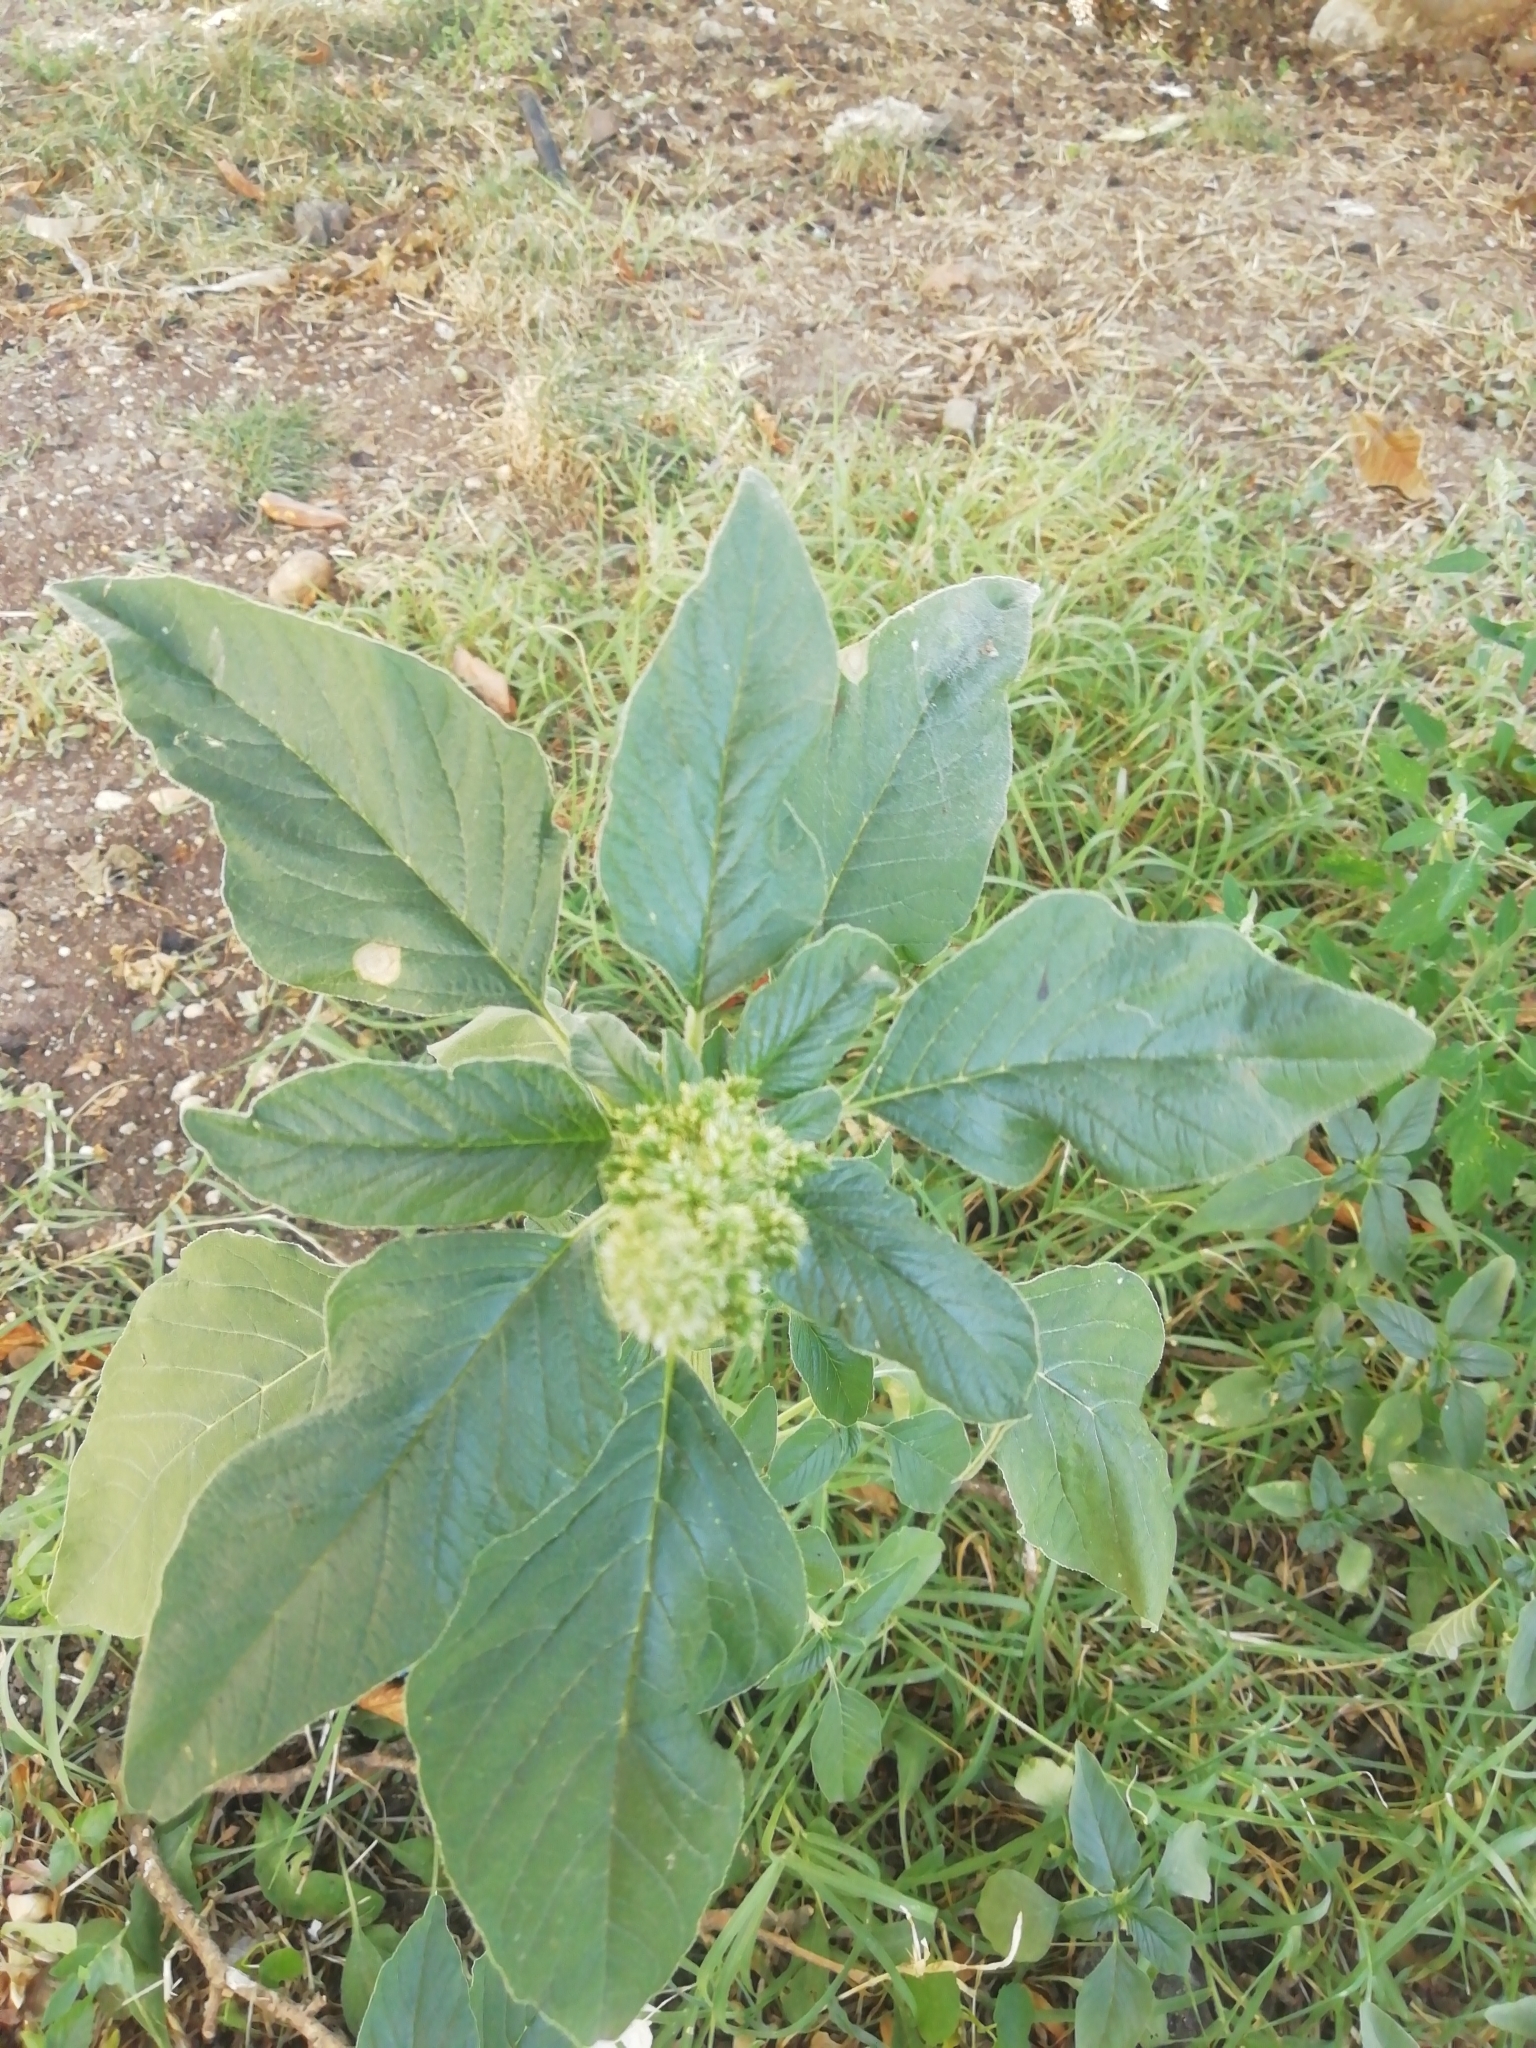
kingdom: Plantae
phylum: Tracheophyta
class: Magnoliopsida
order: Caryophyllales
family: Amaranthaceae
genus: Amaranthus
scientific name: Amaranthus retroflexus
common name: Redroot amaranth
